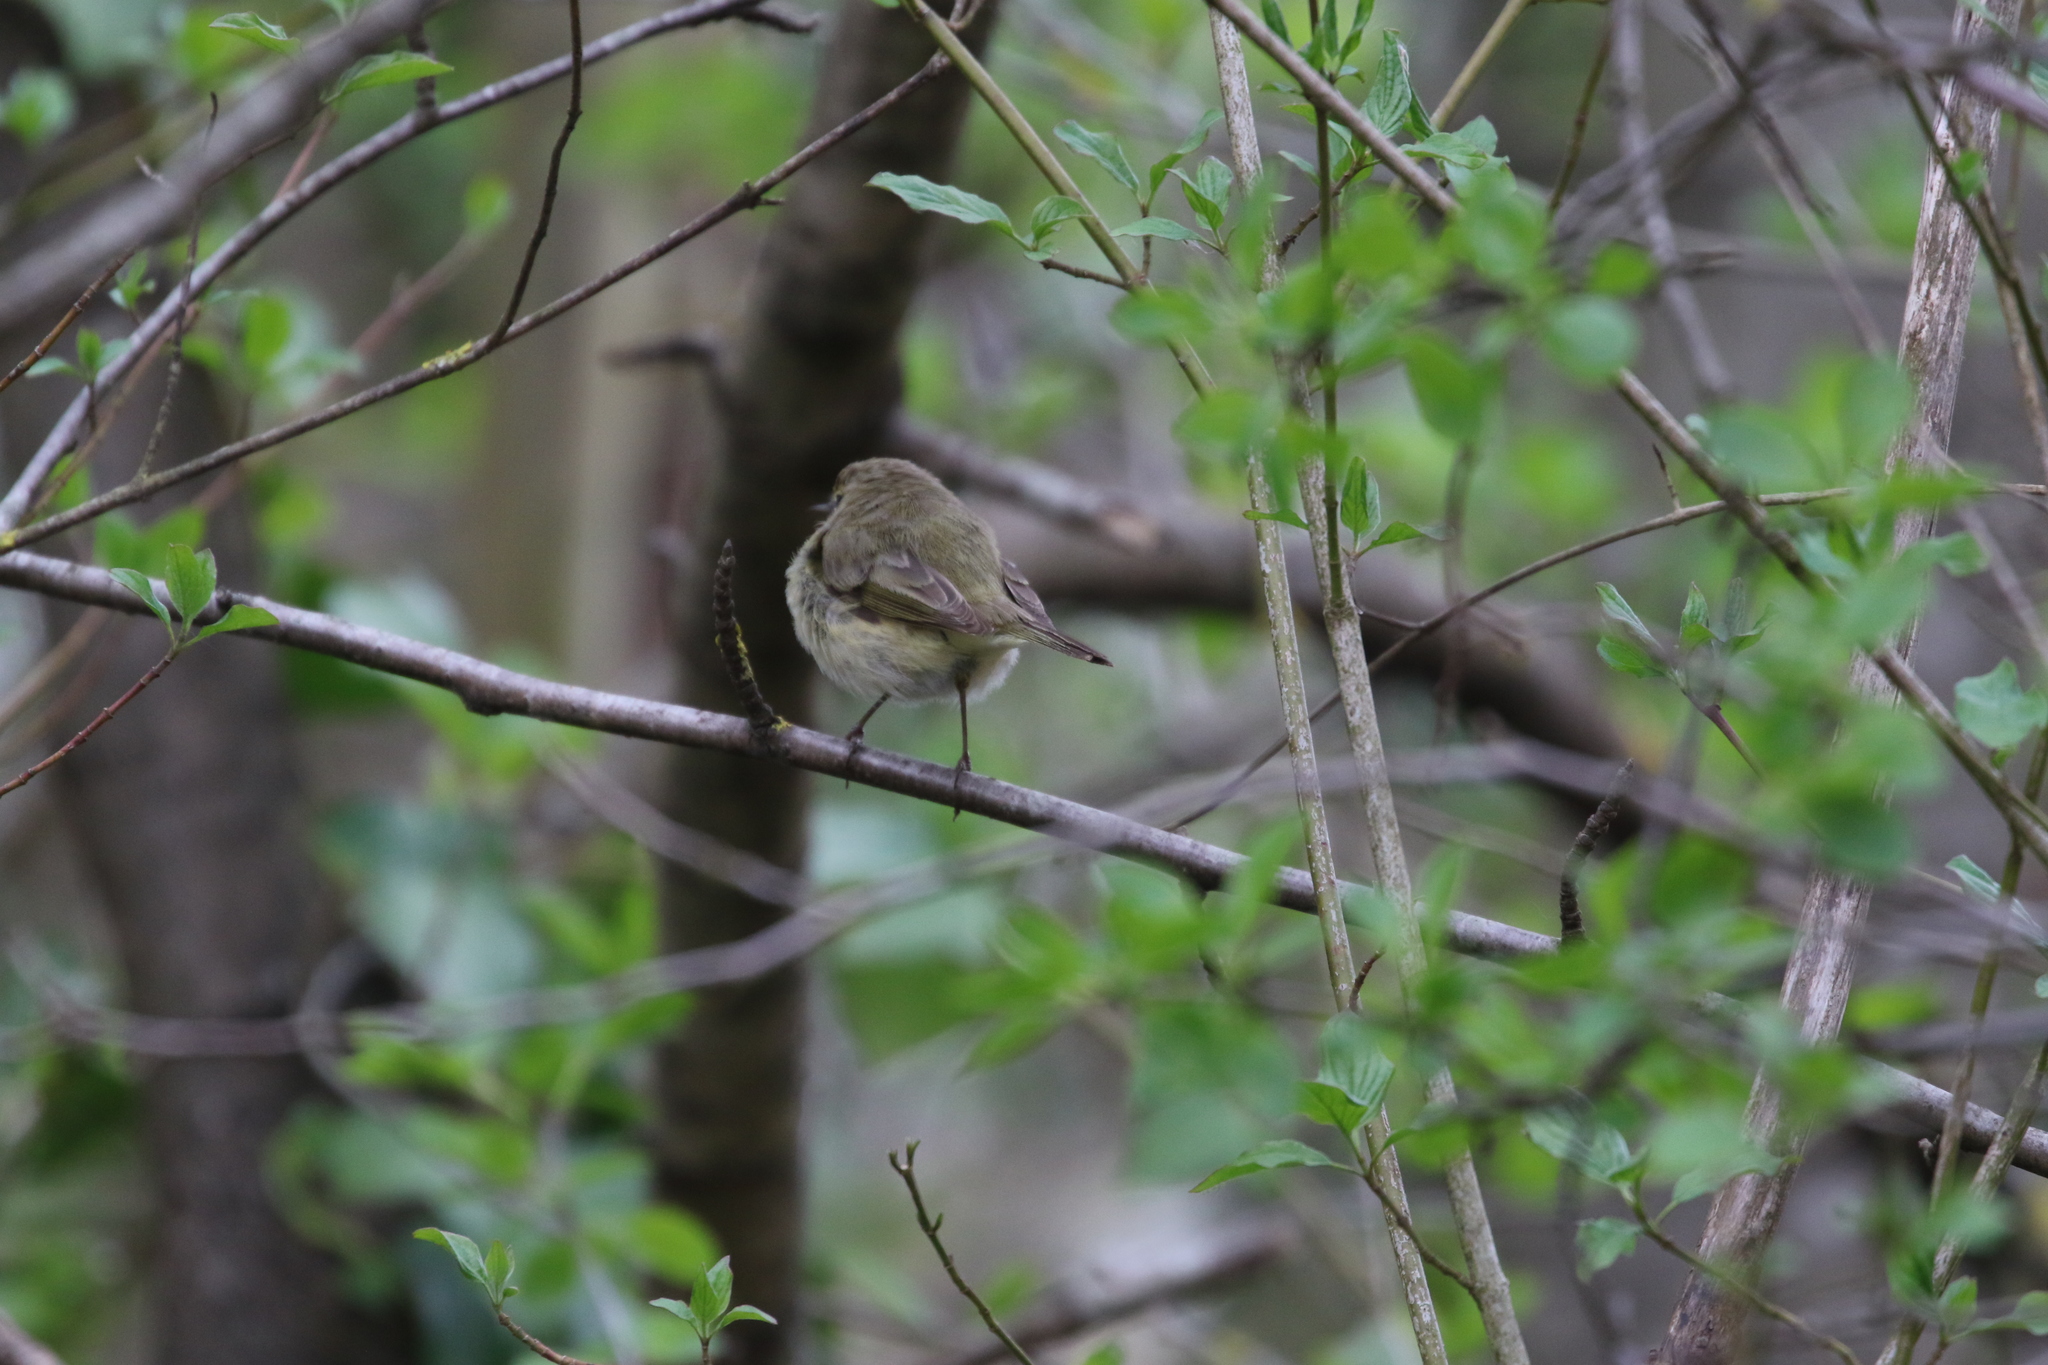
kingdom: Animalia
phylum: Chordata
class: Aves
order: Passeriformes
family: Phylloscopidae
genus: Phylloscopus
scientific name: Phylloscopus collybita
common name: Common chiffchaff
